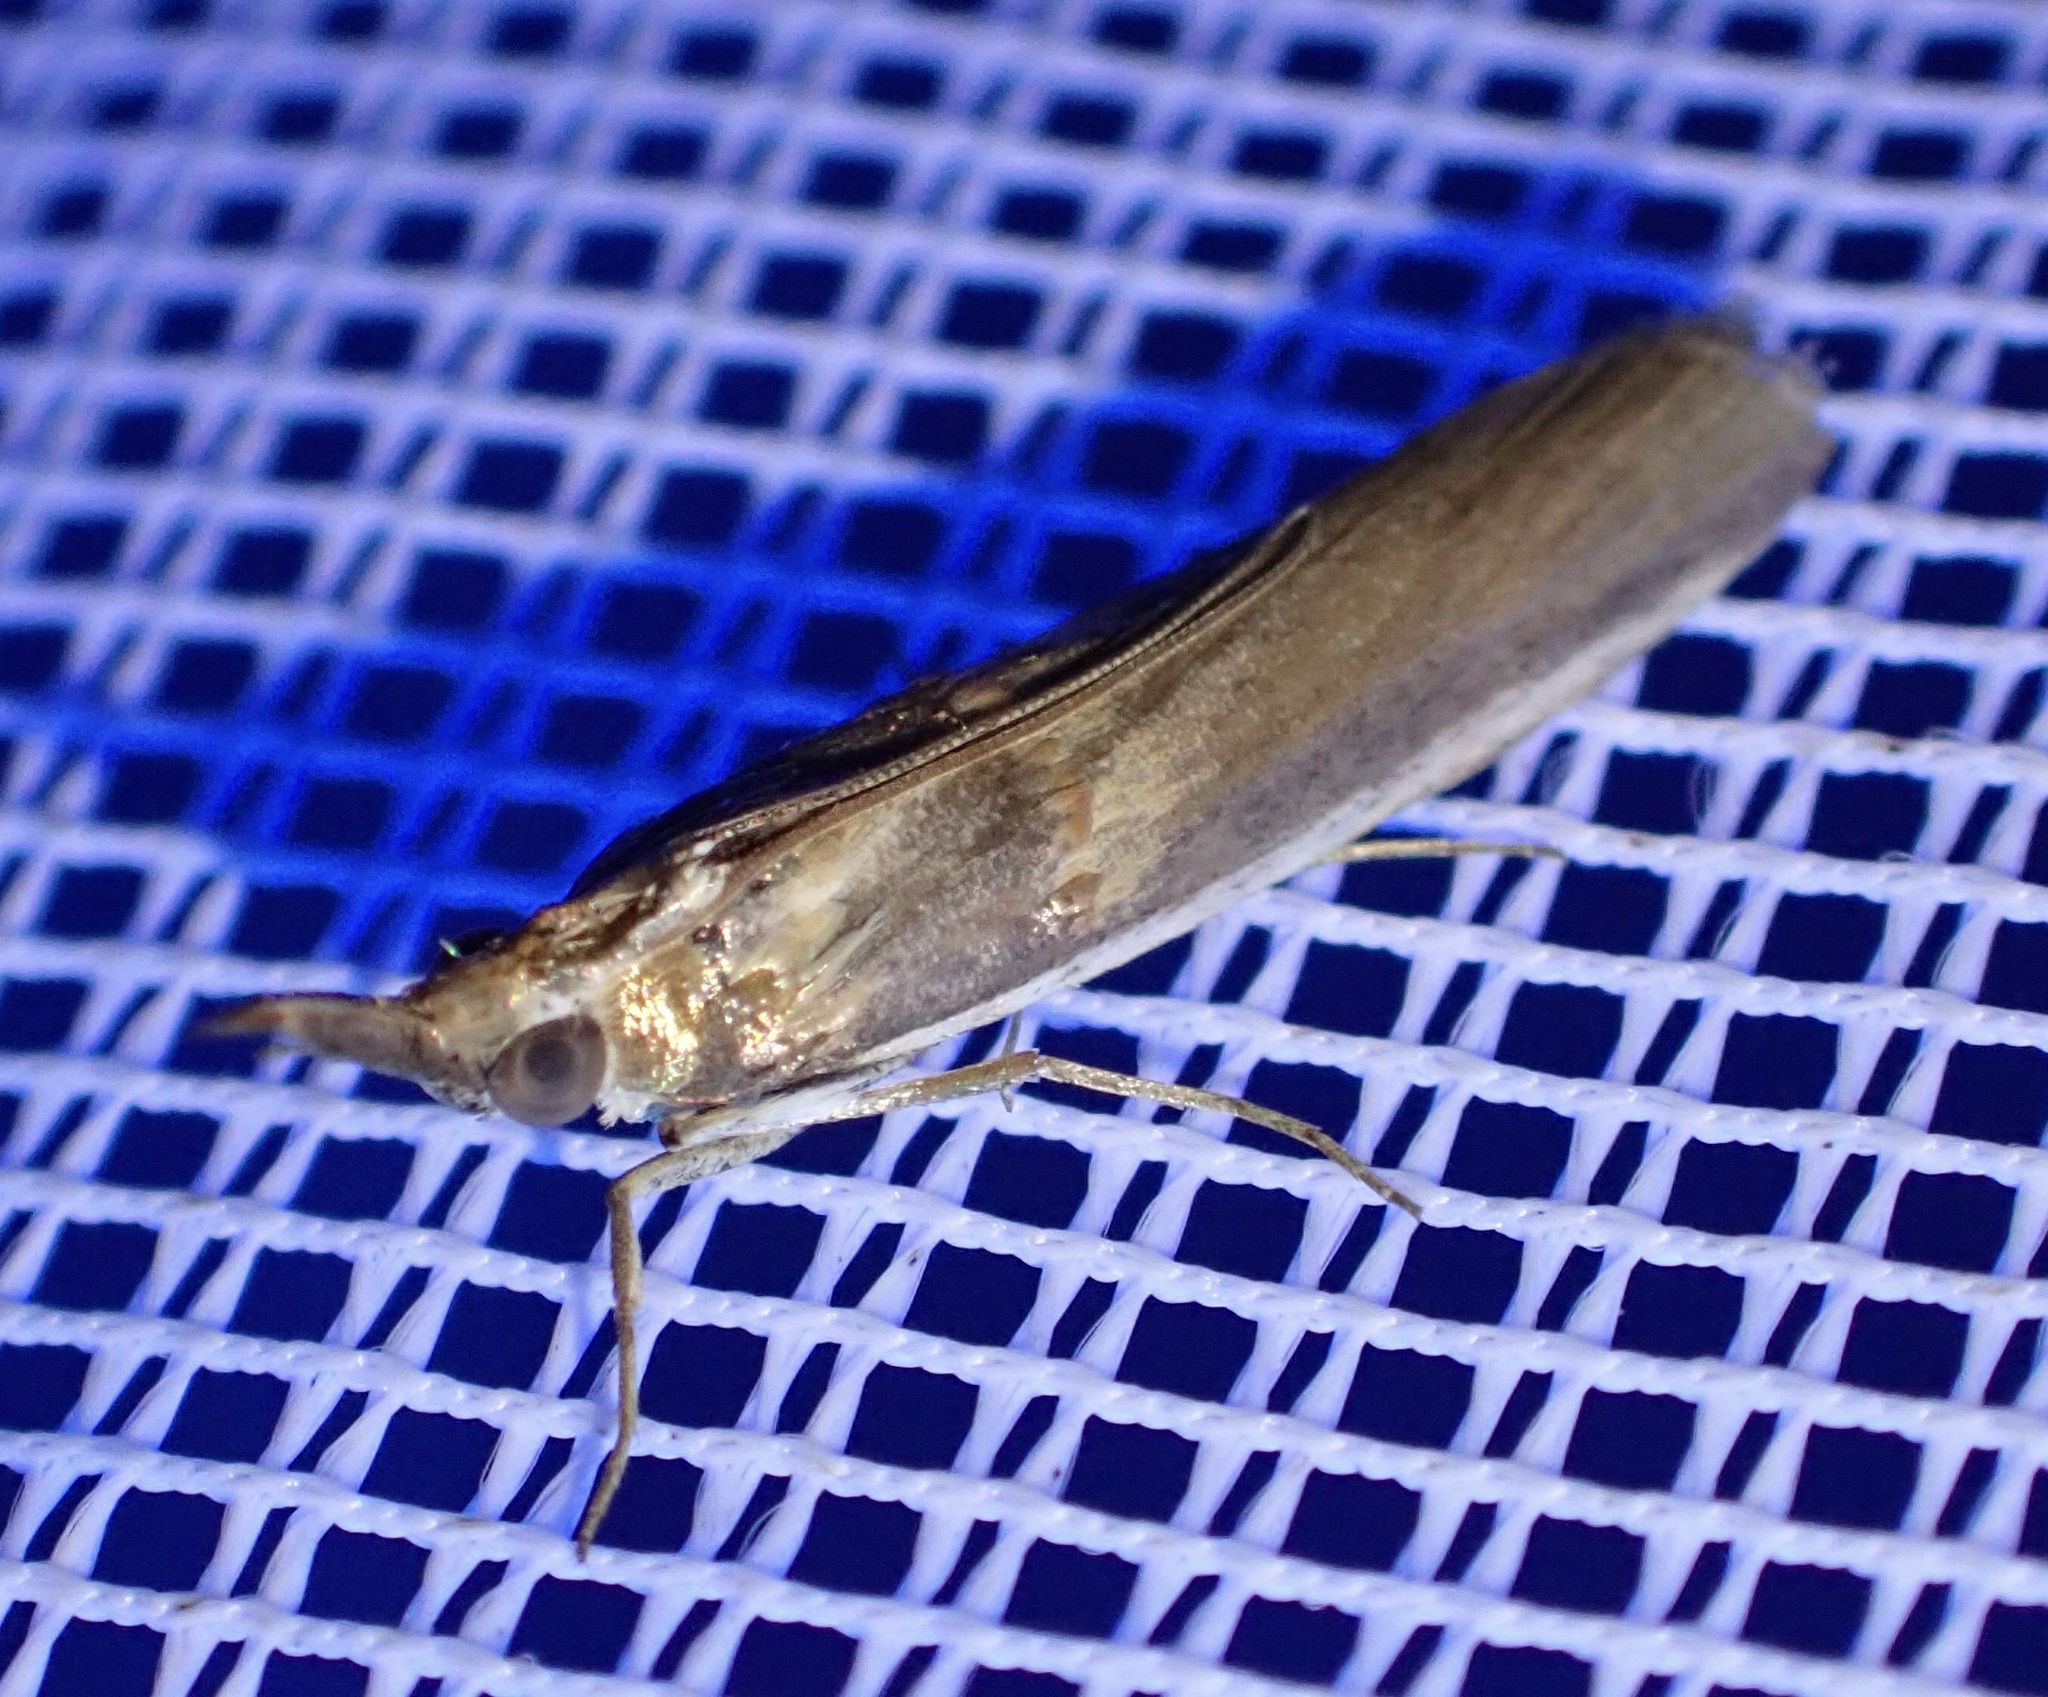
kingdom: Animalia
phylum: Arthropoda
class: Insecta
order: Lepidoptera
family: Pyralidae
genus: Etiella
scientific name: Etiella zinckenella
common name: Gold-banded etiella moth
